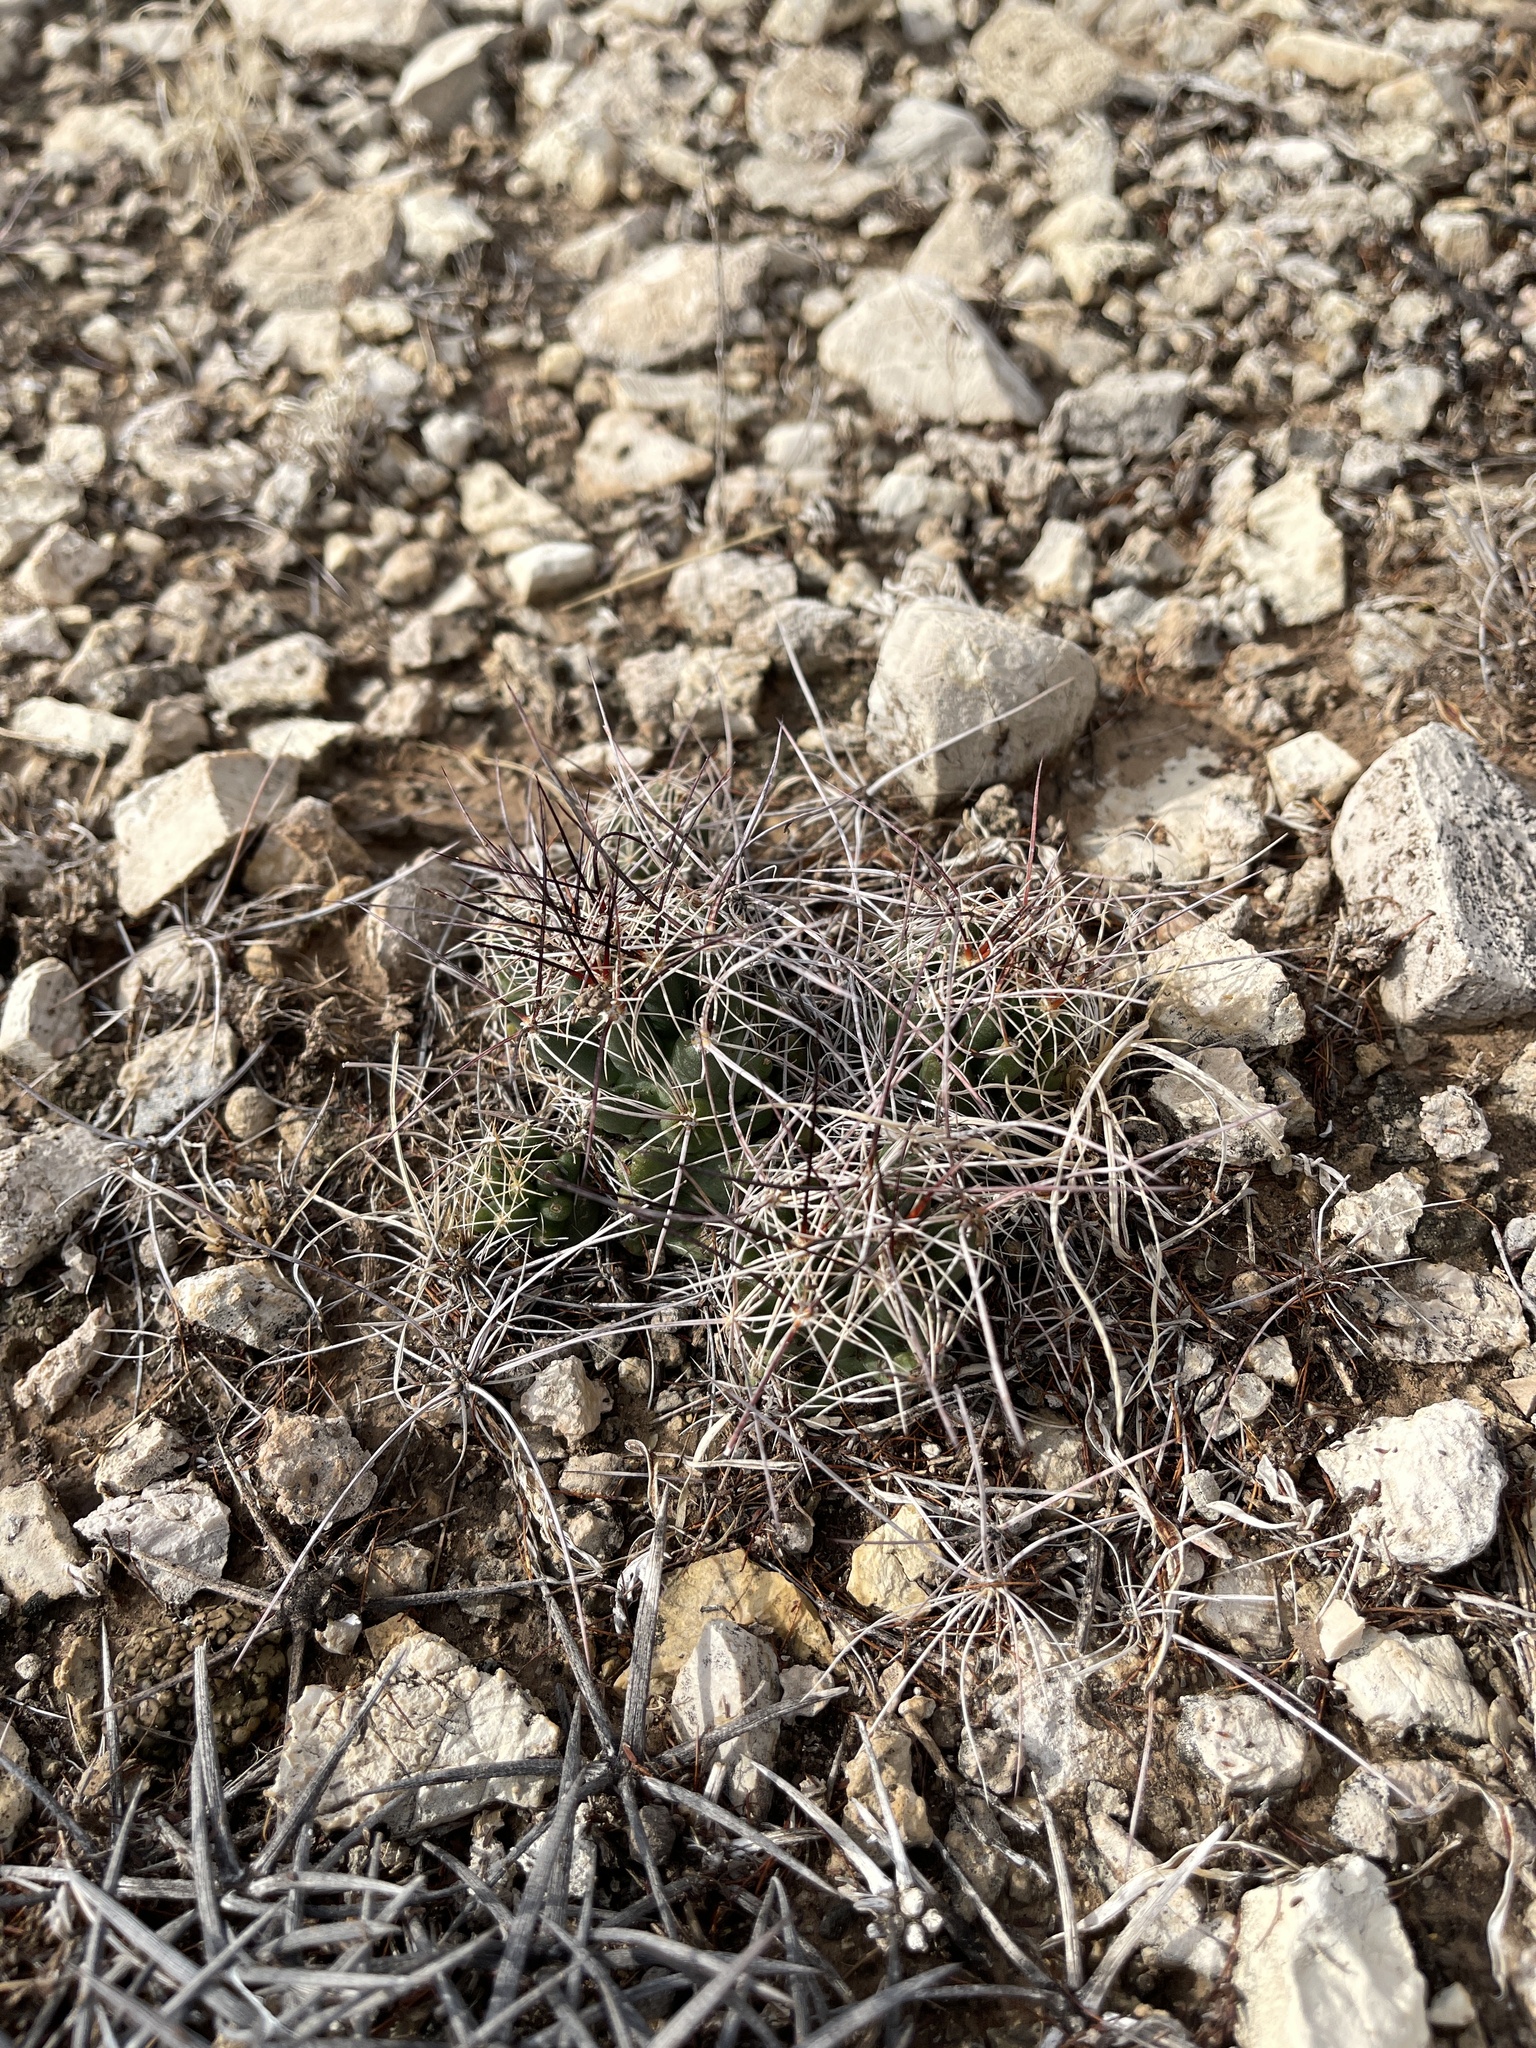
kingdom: Plantae
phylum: Tracheophyta
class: Magnoliopsida
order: Caryophyllales
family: Cactaceae
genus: Coryphantha
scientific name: Coryphantha macromeris
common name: Nipple beehive cactus
